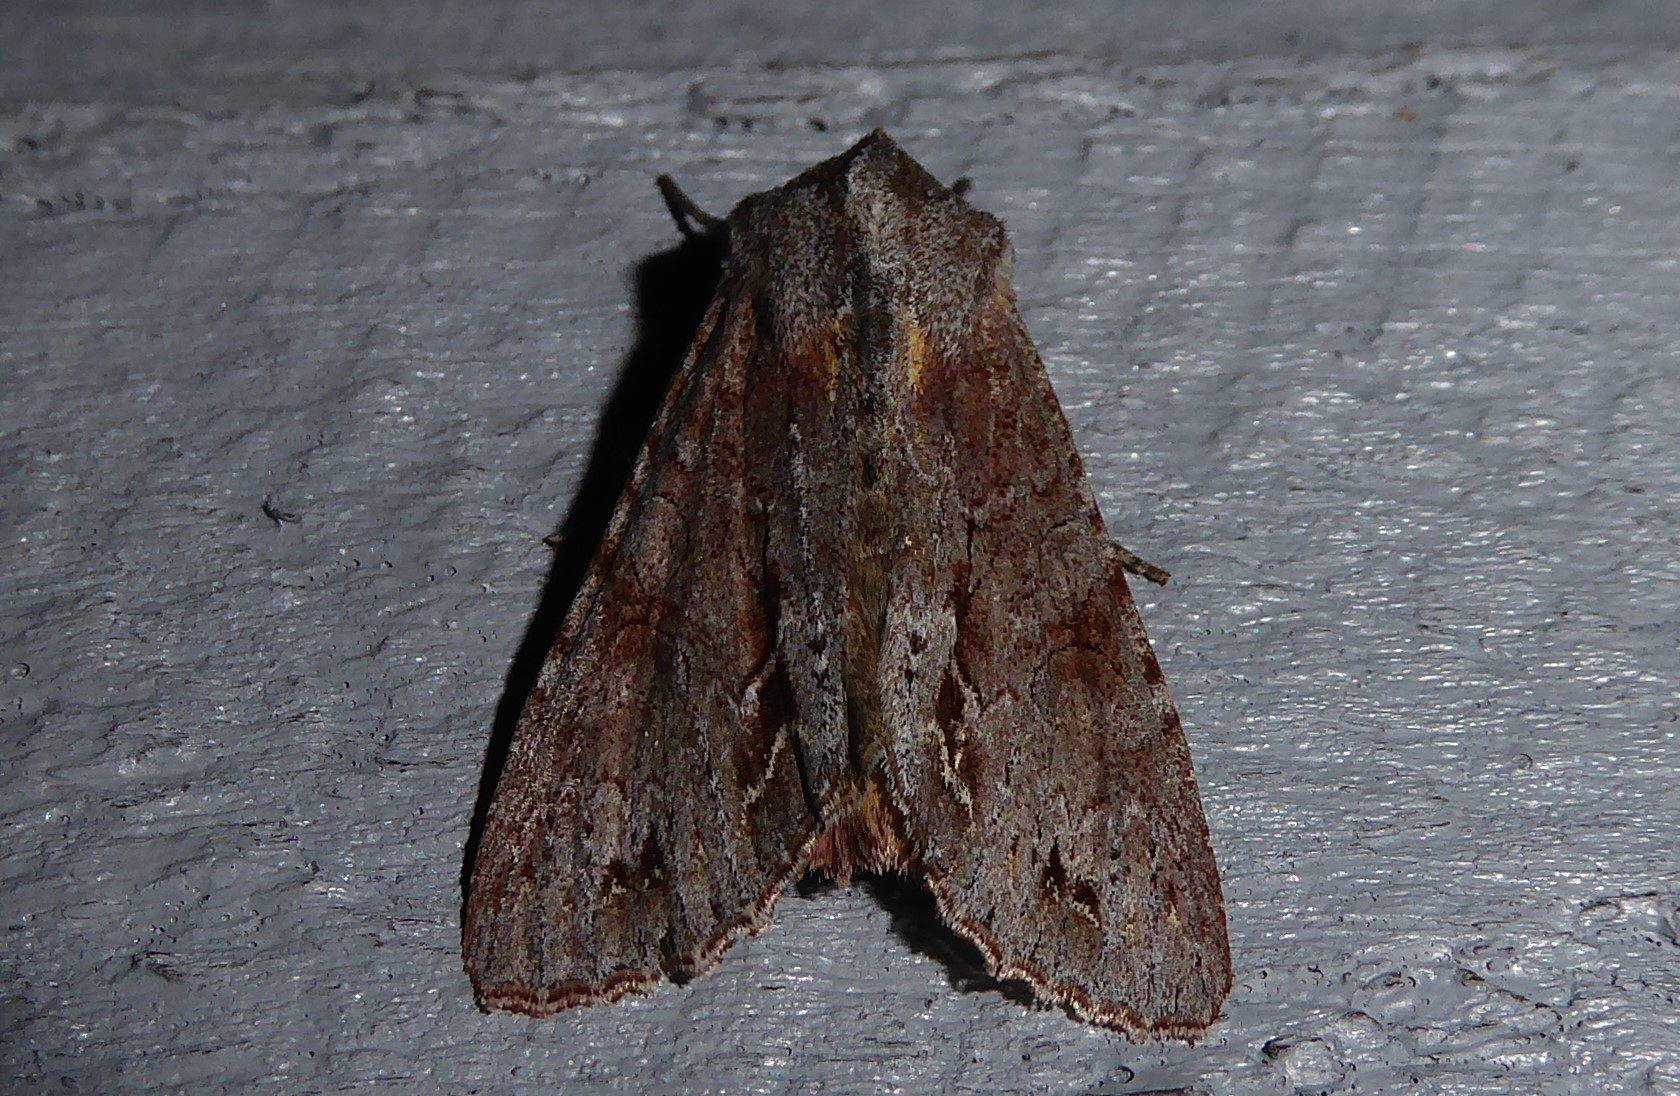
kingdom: Animalia
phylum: Arthropoda
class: Insecta
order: Lepidoptera
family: Noctuidae
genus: Ichneutica
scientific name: Ichneutica
